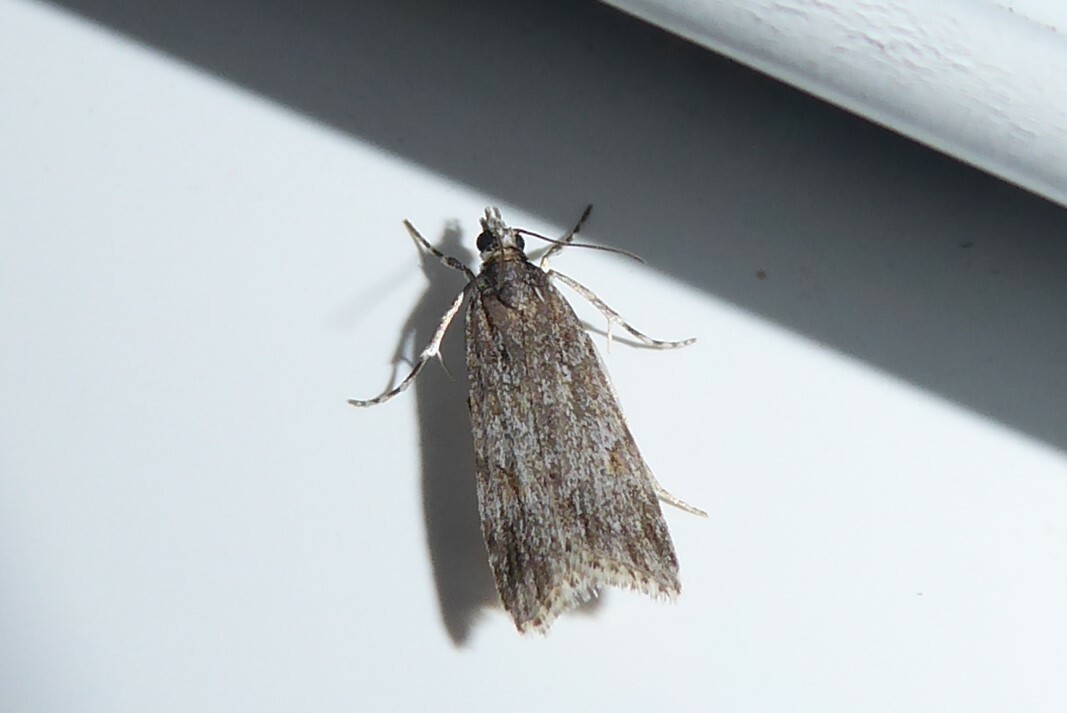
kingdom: Animalia
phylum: Arthropoda
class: Insecta
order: Lepidoptera
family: Crambidae
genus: Scoparia
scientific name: Scoparia chalicodes
